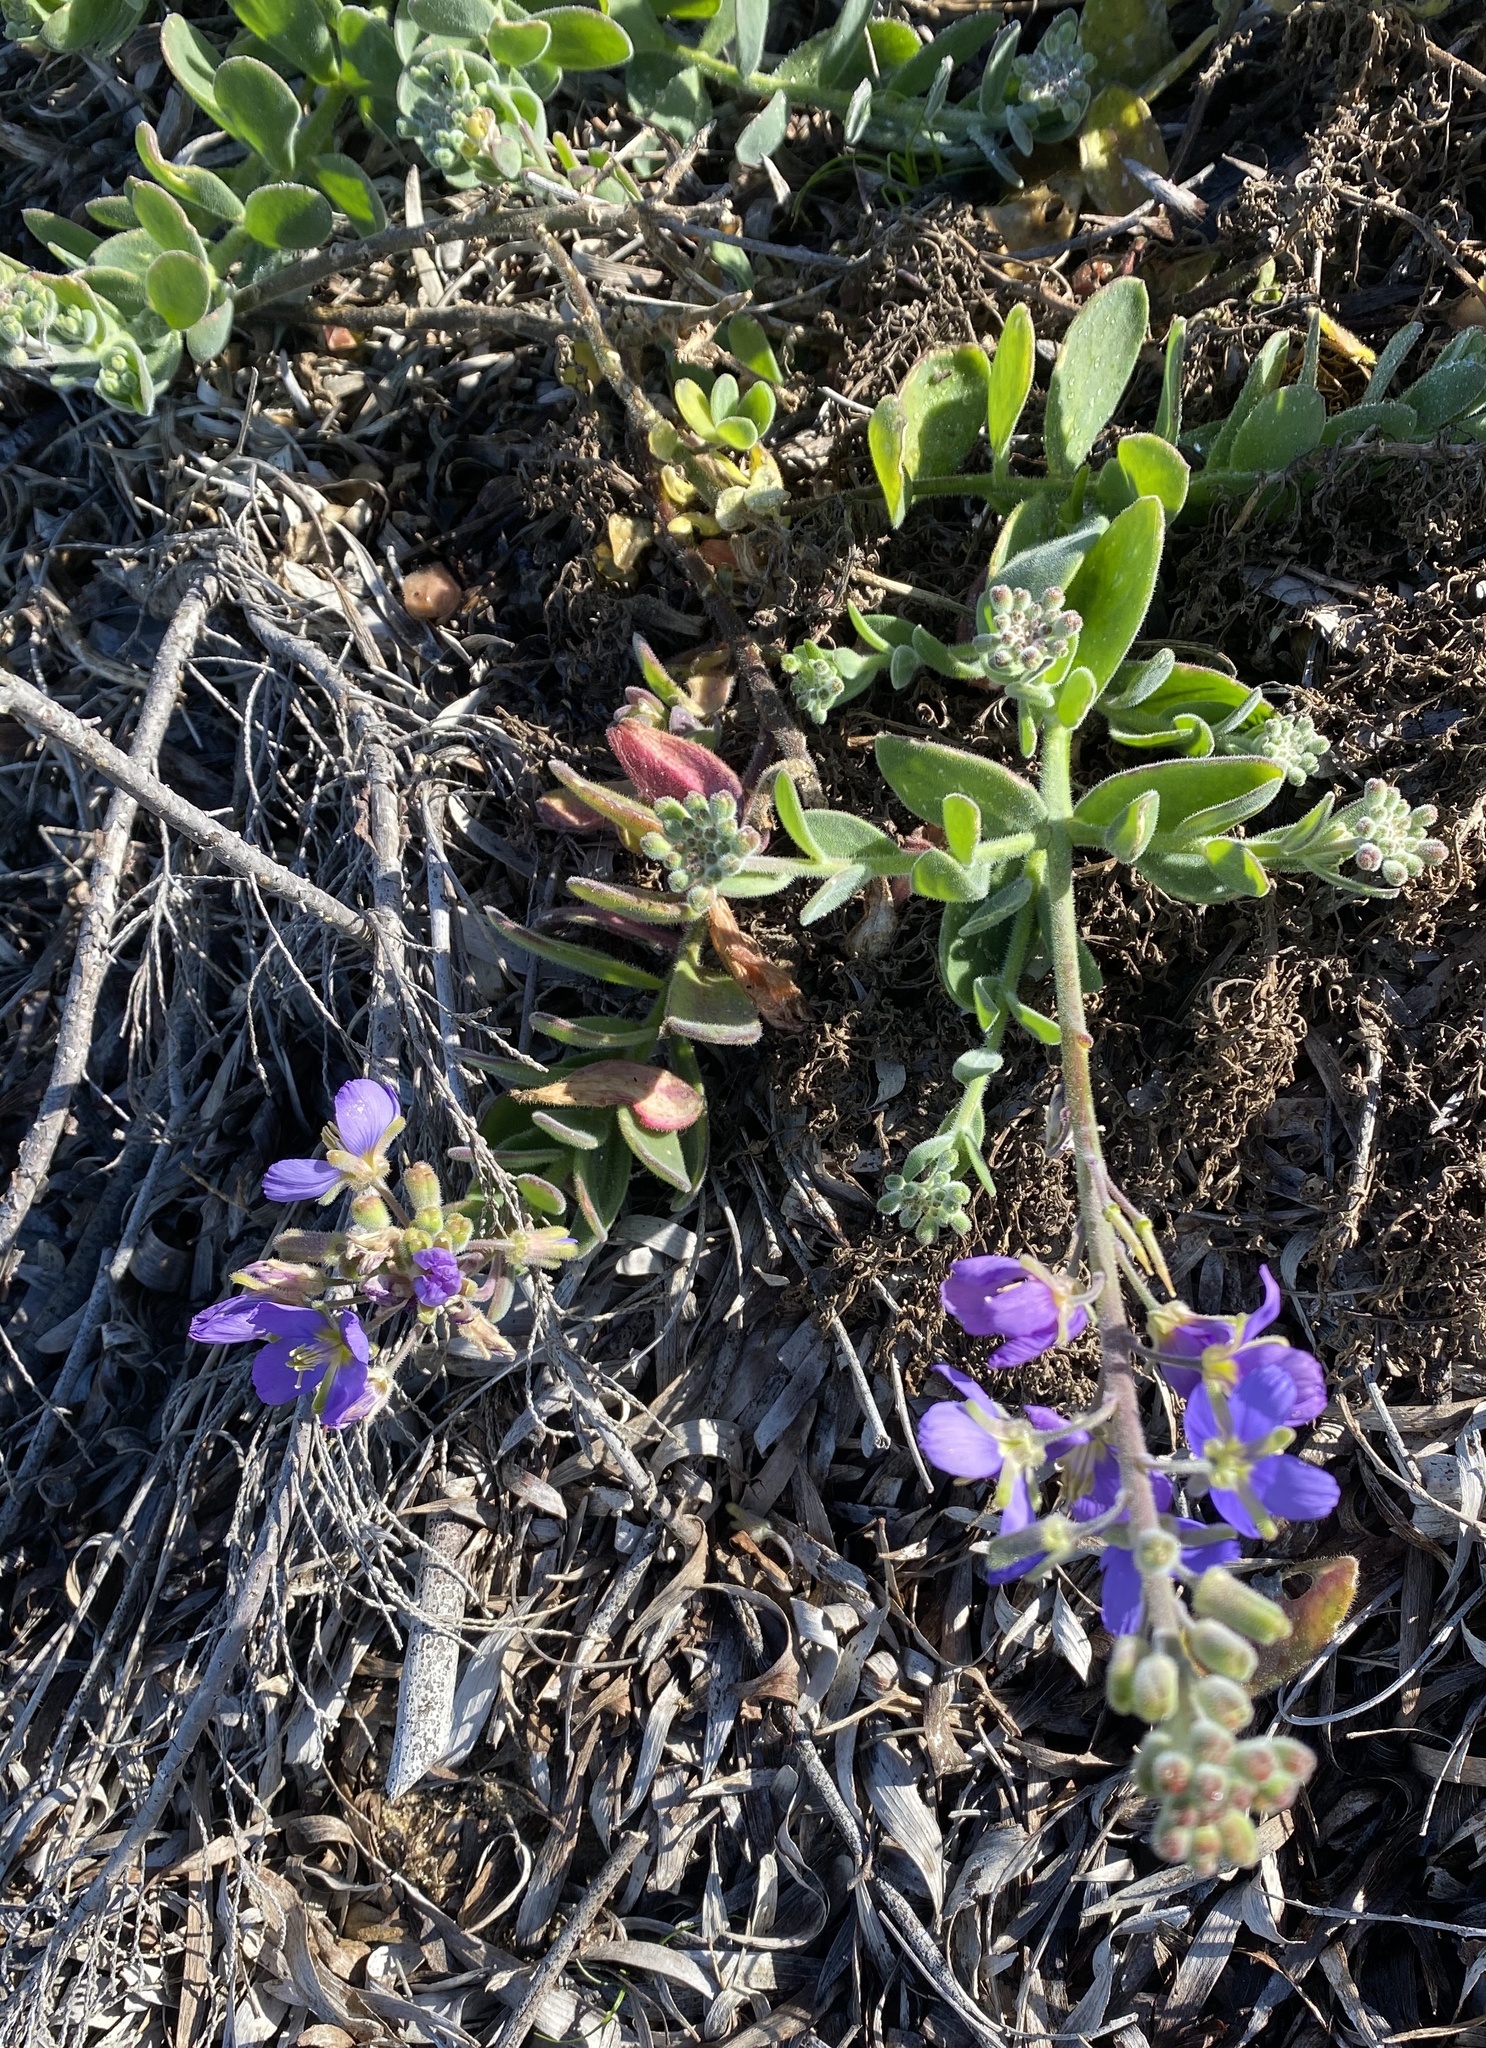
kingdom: Plantae
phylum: Tracheophyta
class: Magnoliopsida
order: Brassicales
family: Brassicaceae
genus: Heliophila
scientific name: Heliophila crassistyla
